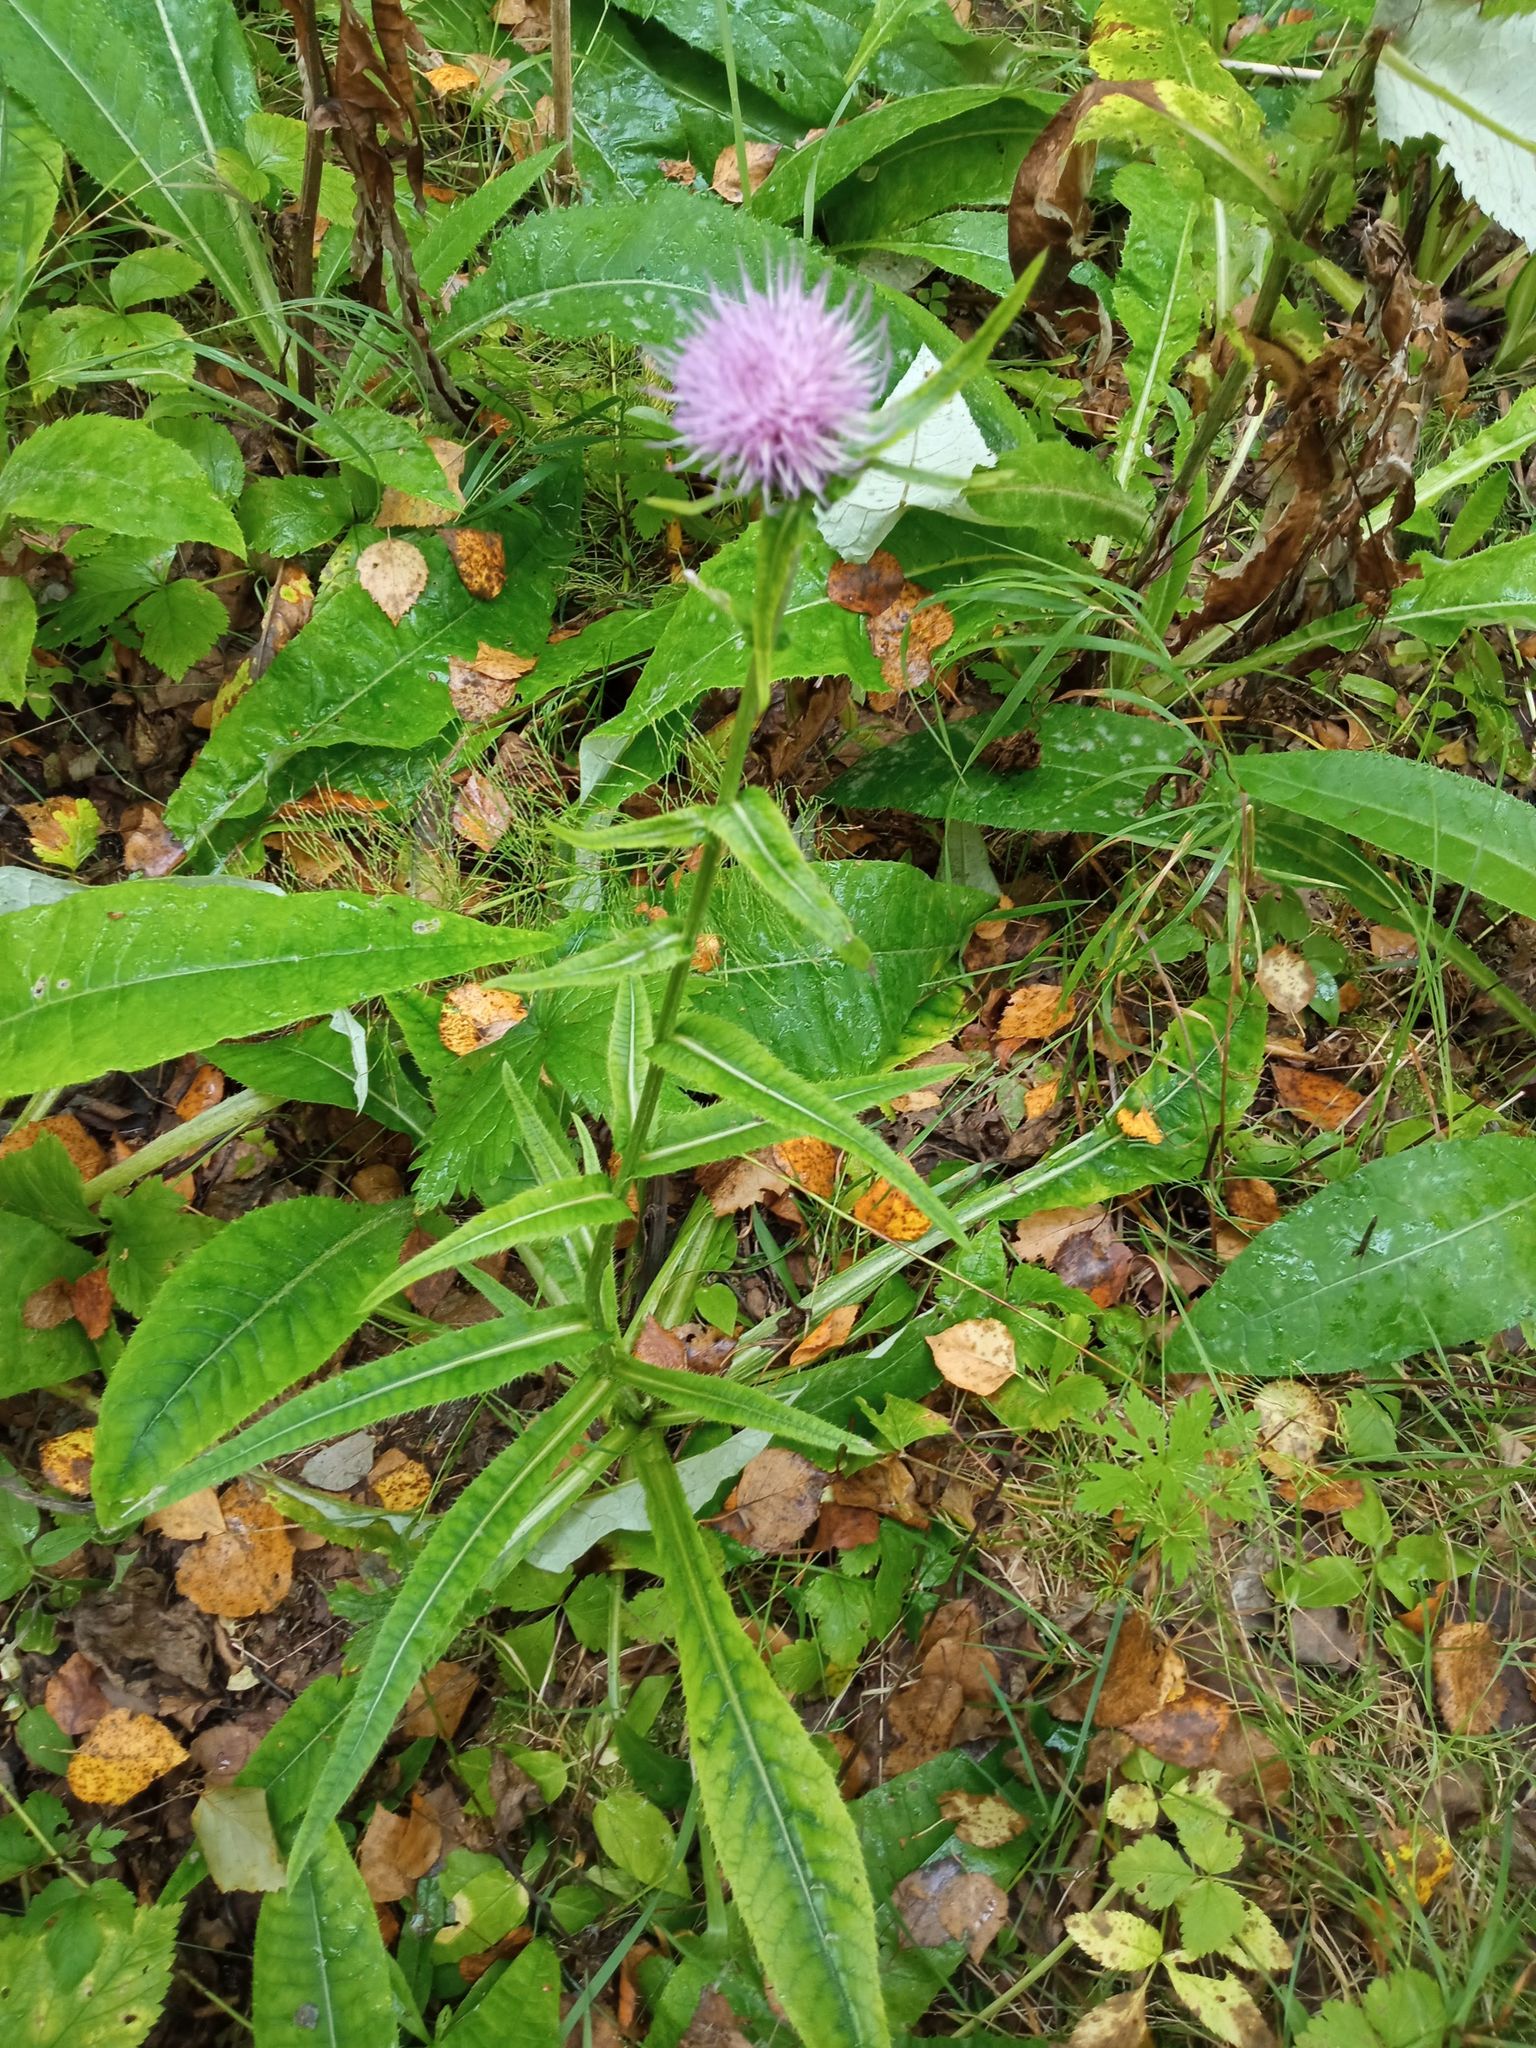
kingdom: Plantae
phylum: Tracheophyta
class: Magnoliopsida
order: Asterales
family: Asteraceae
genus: Cirsium
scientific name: Cirsium heterophyllum
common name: Melancholy thistle
